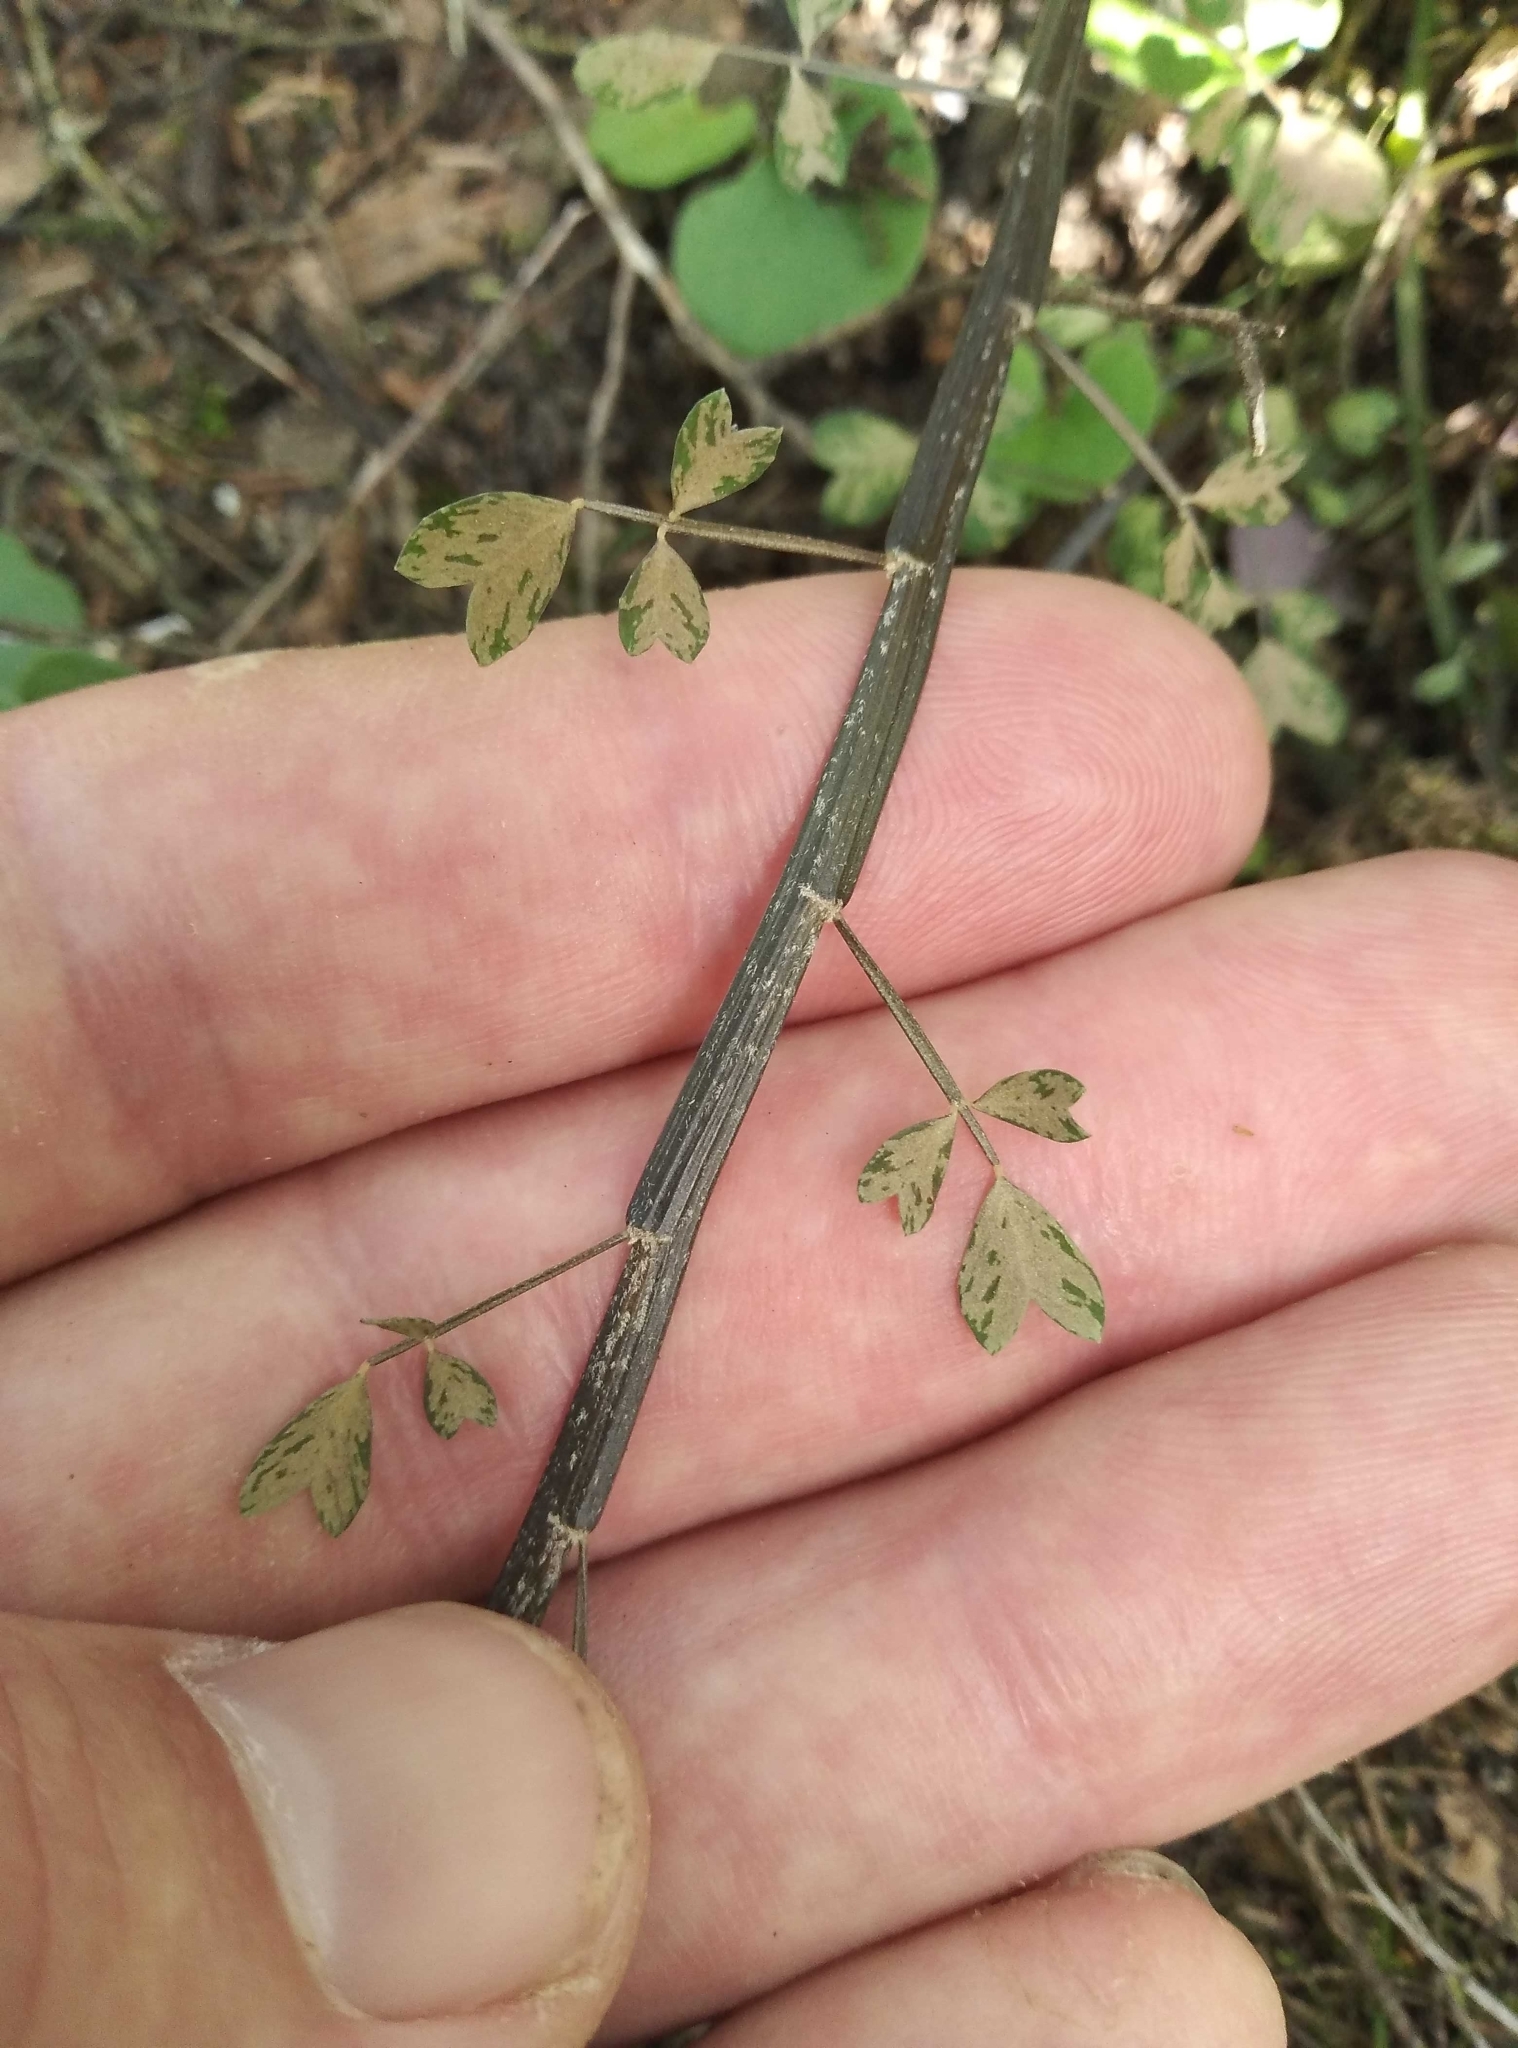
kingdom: Plantae
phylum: Tracheophyta
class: Magnoliopsida
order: Fabales
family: Fabaceae
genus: Carmichaelia
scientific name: Carmichaelia australis
